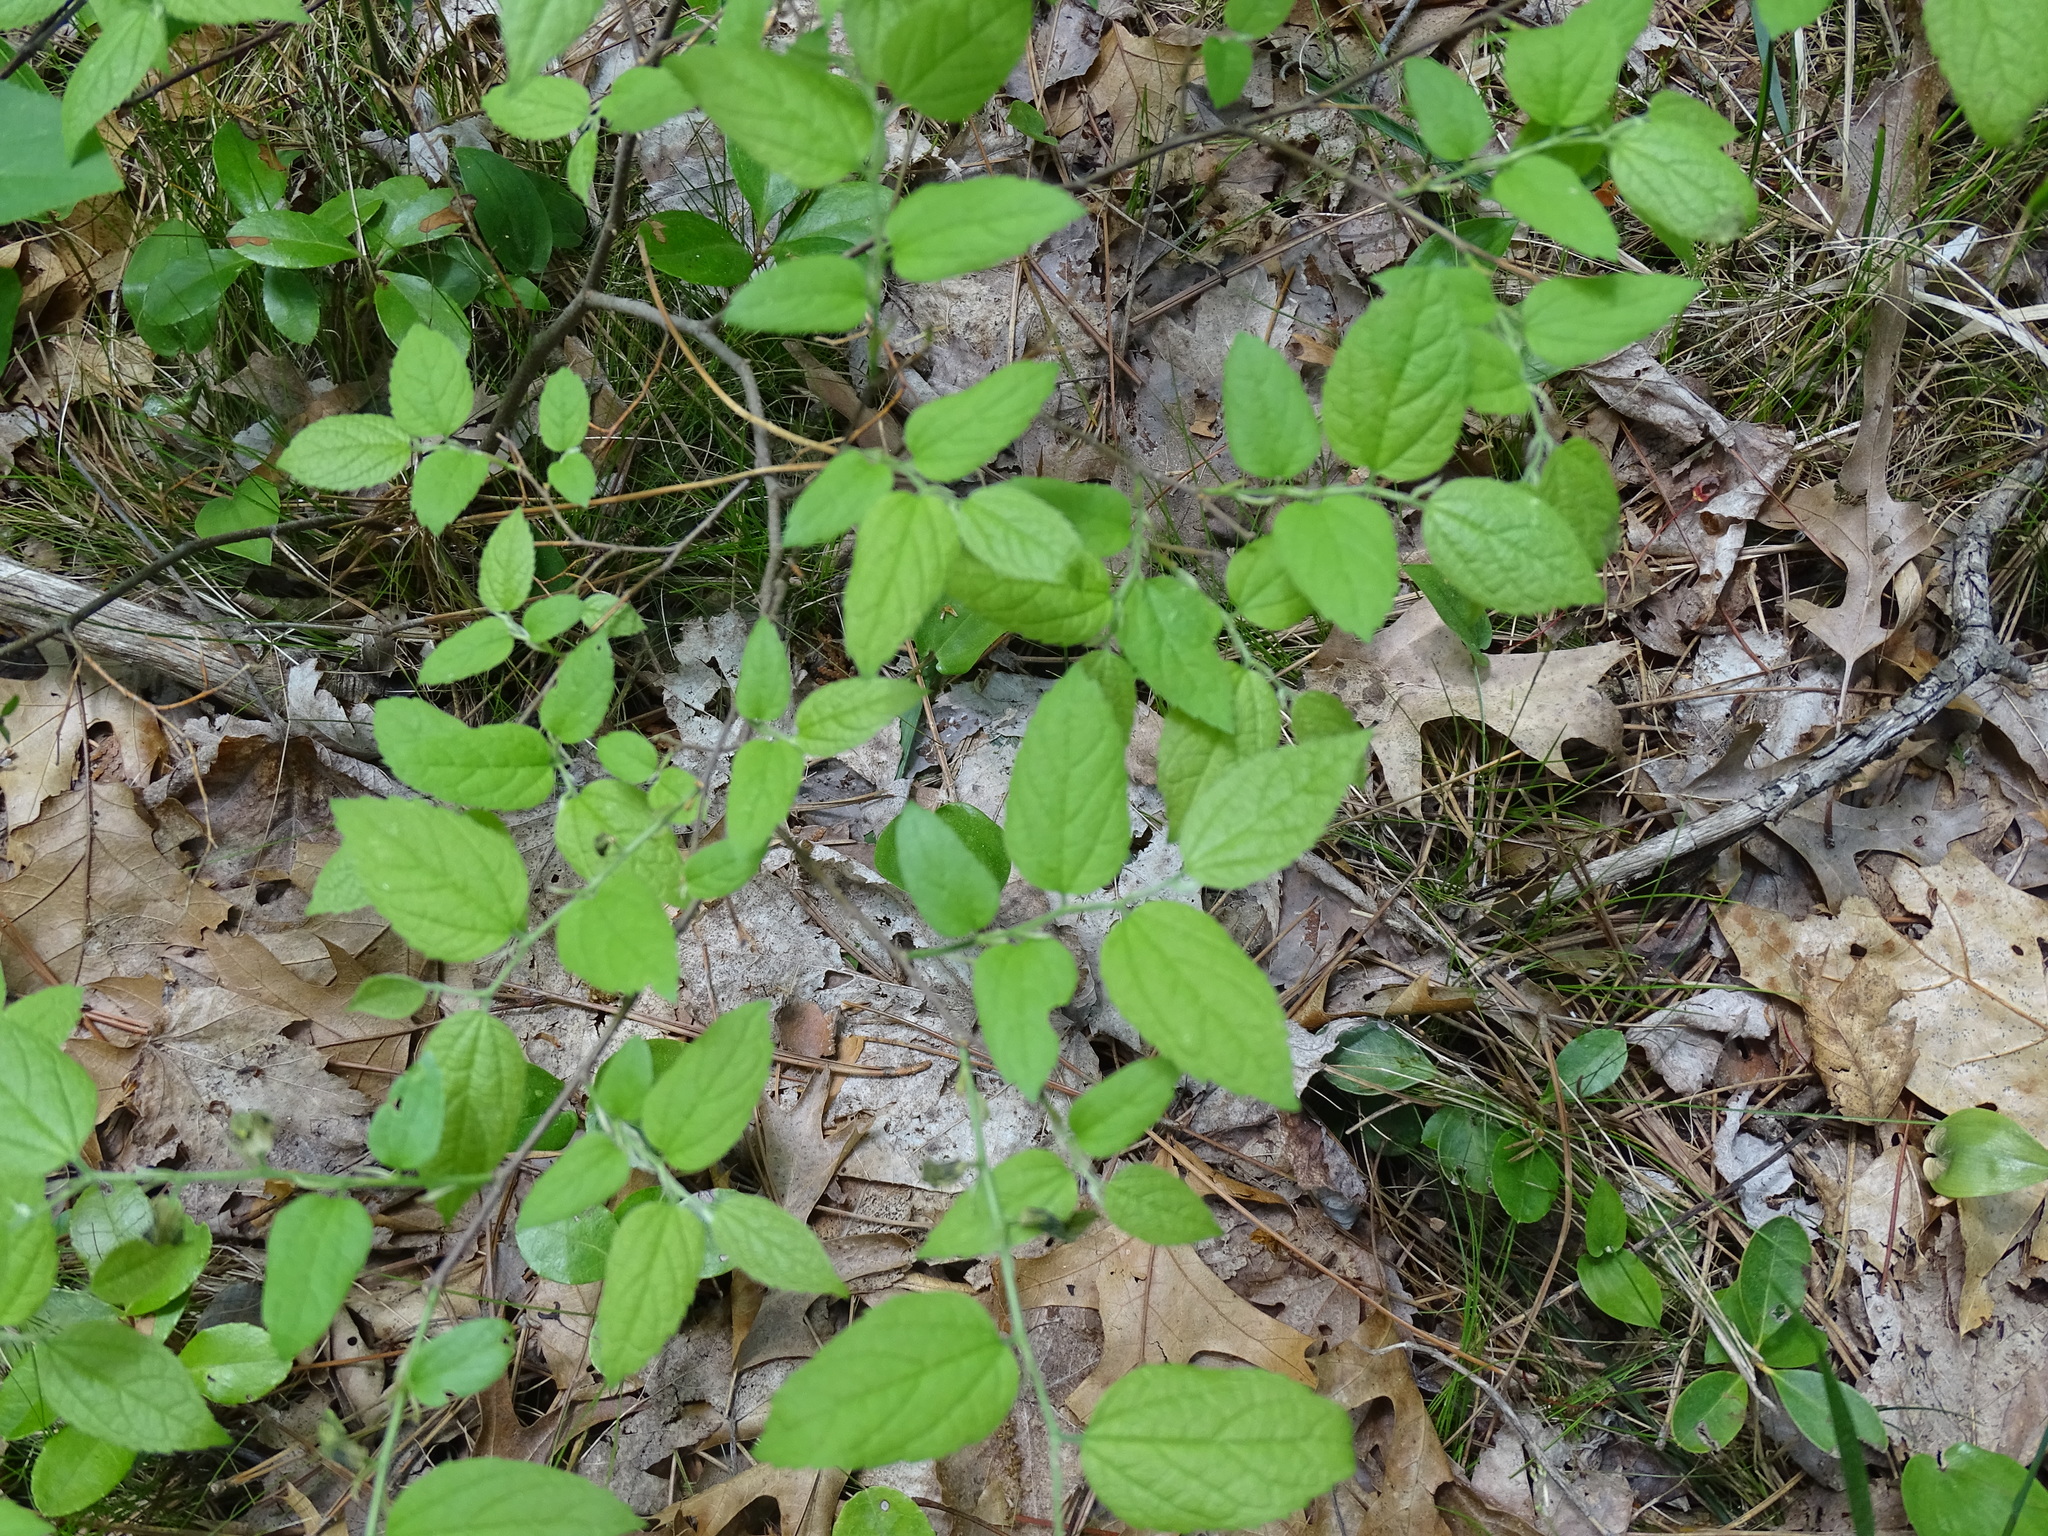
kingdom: Plantae
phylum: Tracheophyta
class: Magnoliopsida
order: Rosales
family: Cannabaceae
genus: Celtis
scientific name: Celtis tenuifolia
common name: Georgia hackberry
